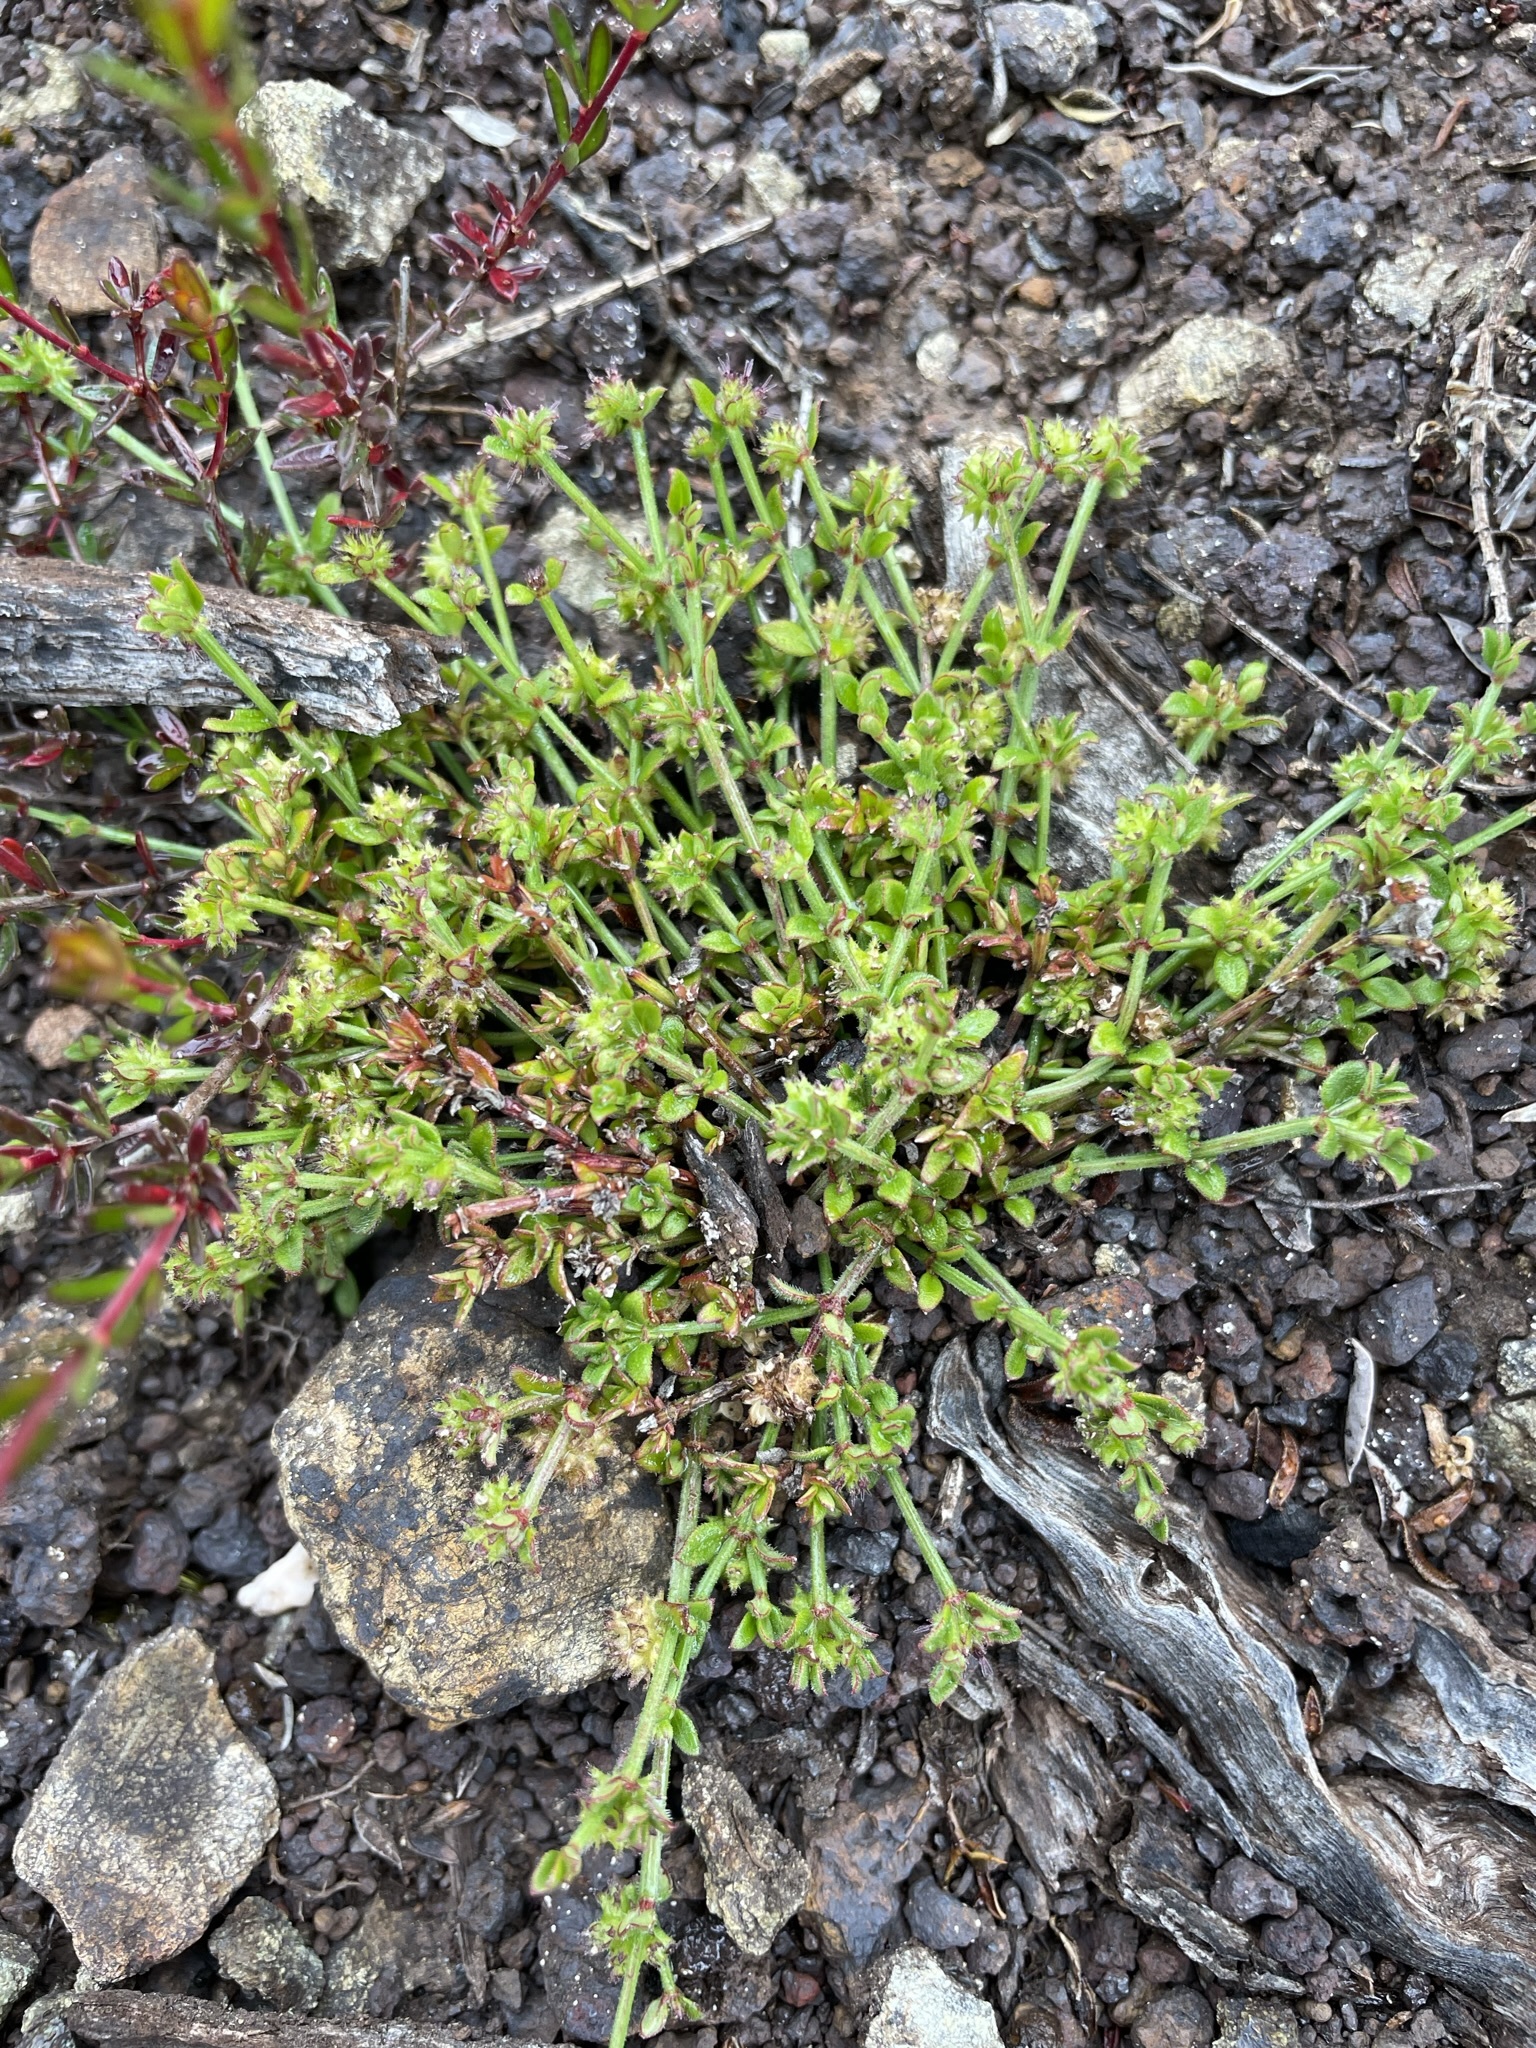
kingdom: Plantae
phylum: Tracheophyta
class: Magnoliopsida
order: Gentianales
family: Rubiaceae
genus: Opercularia
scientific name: Opercularia varia
